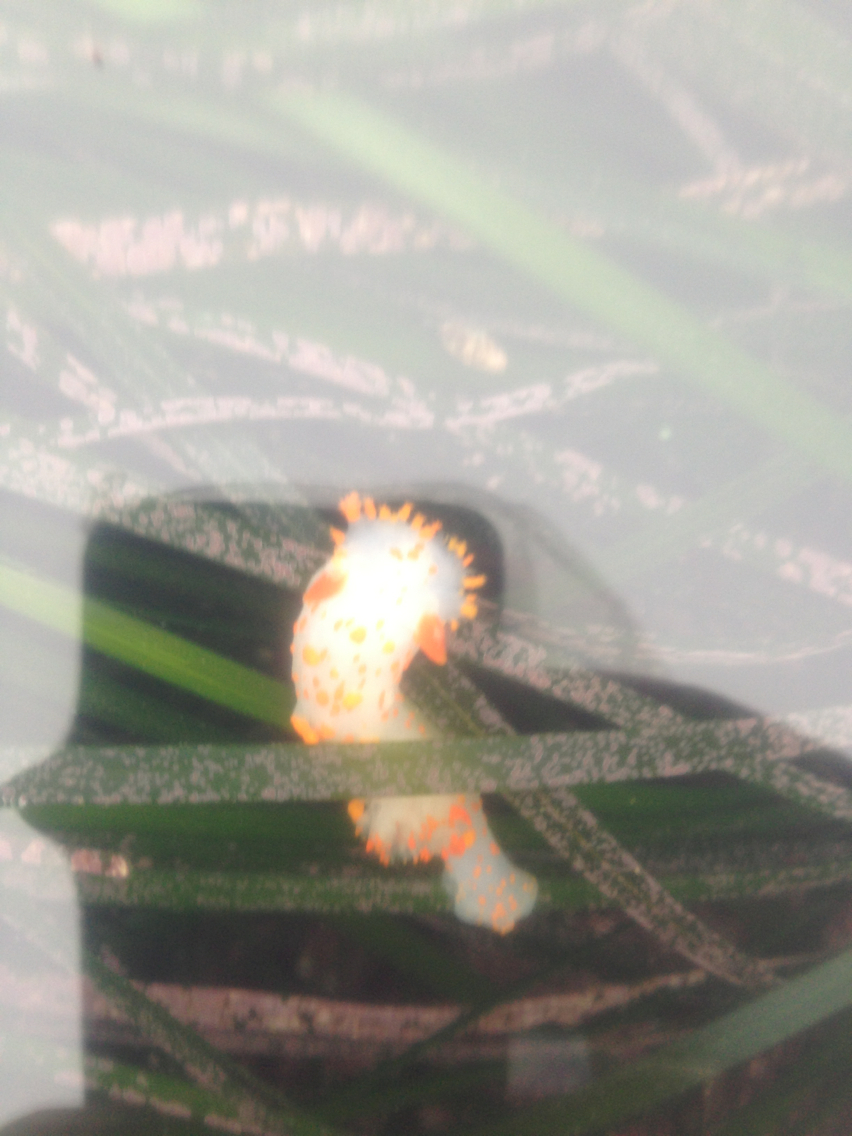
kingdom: Animalia
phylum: Mollusca
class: Gastropoda
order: Nudibranchia
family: Polyceridae
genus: Triopha
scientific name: Triopha catalinae
